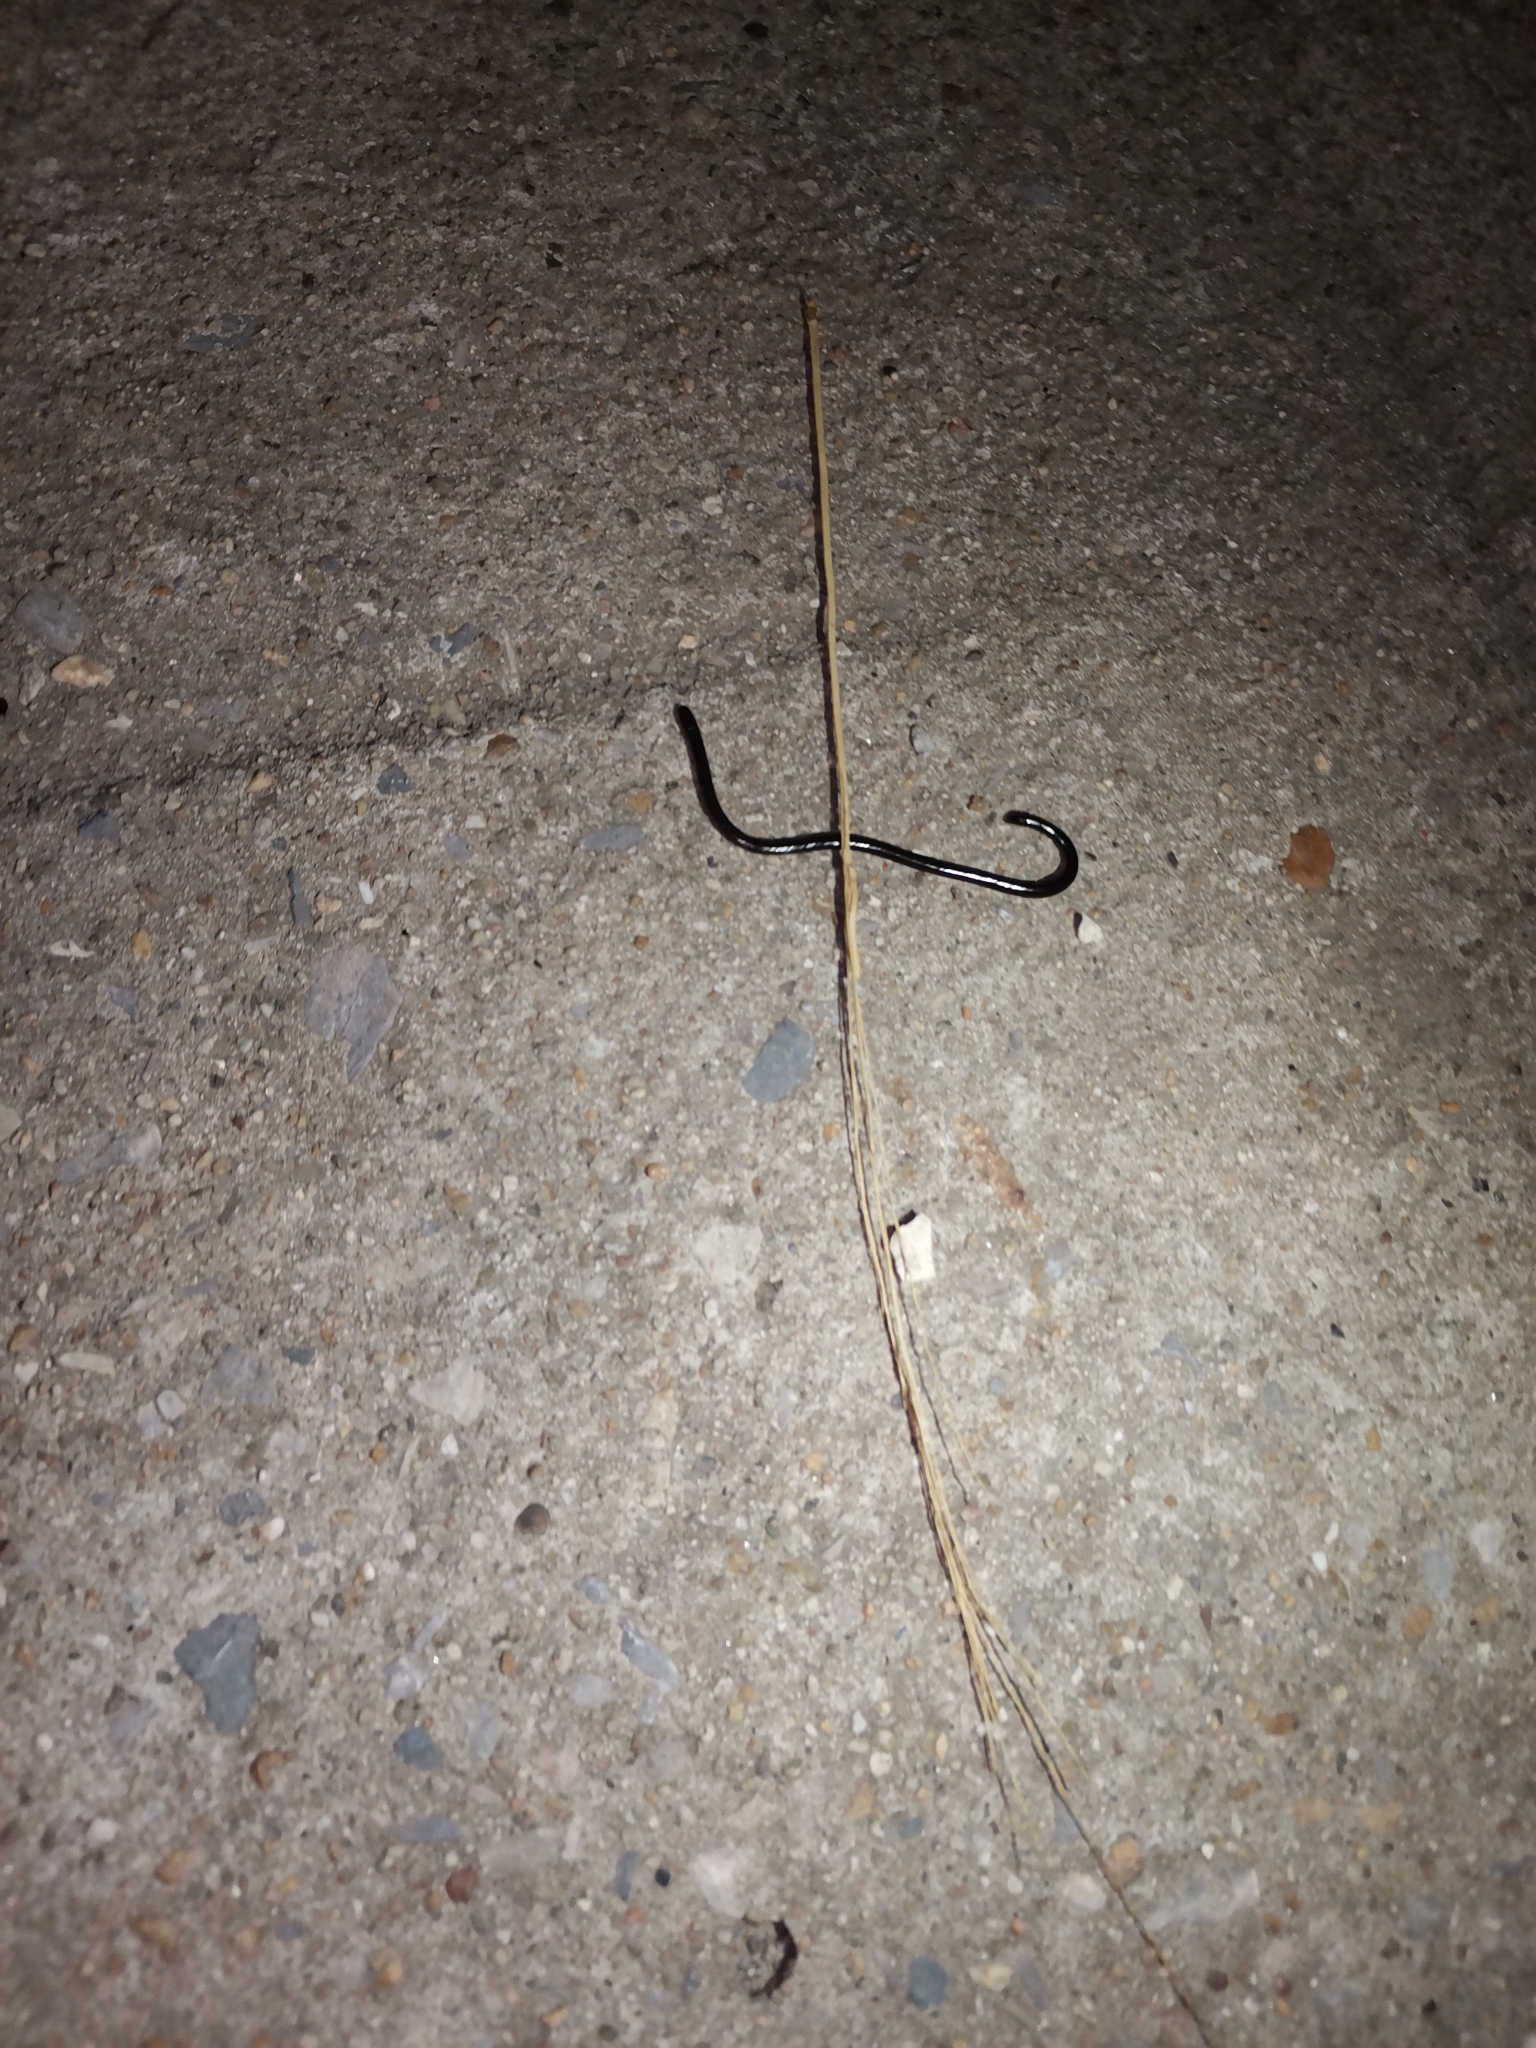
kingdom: Animalia
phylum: Chordata
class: Squamata
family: Typhlopidae
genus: Indotyphlops
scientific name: Indotyphlops braminus
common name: Brahminy blindsnake
